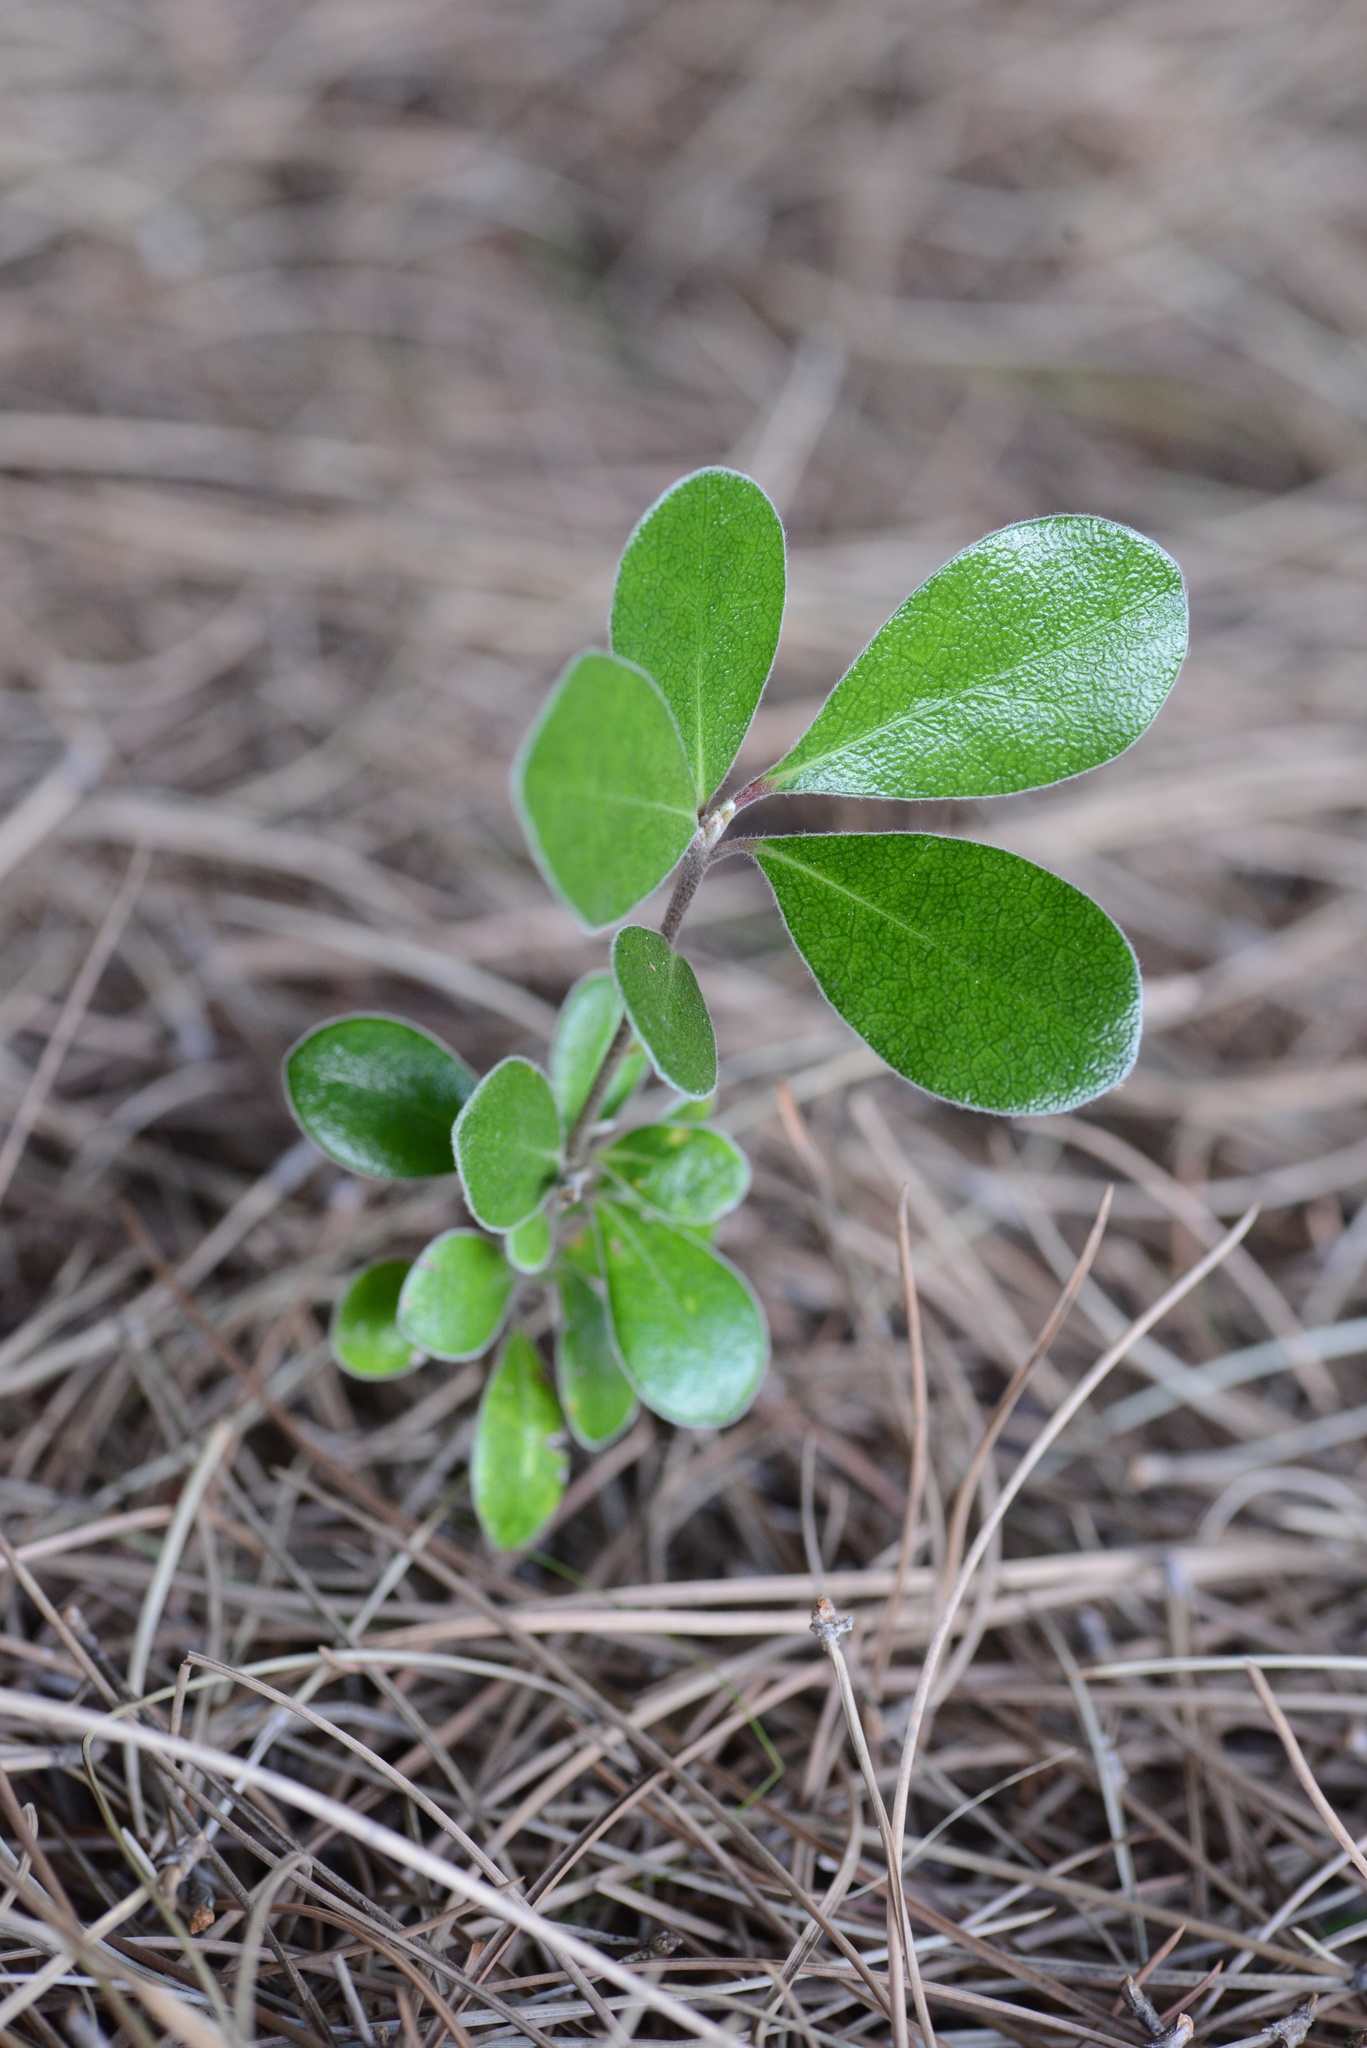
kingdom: Plantae
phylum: Tracheophyta
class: Magnoliopsida
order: Apiales
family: Pittosporaceae
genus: Pittosporum
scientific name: Pittosporum crassifolium
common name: Karo
